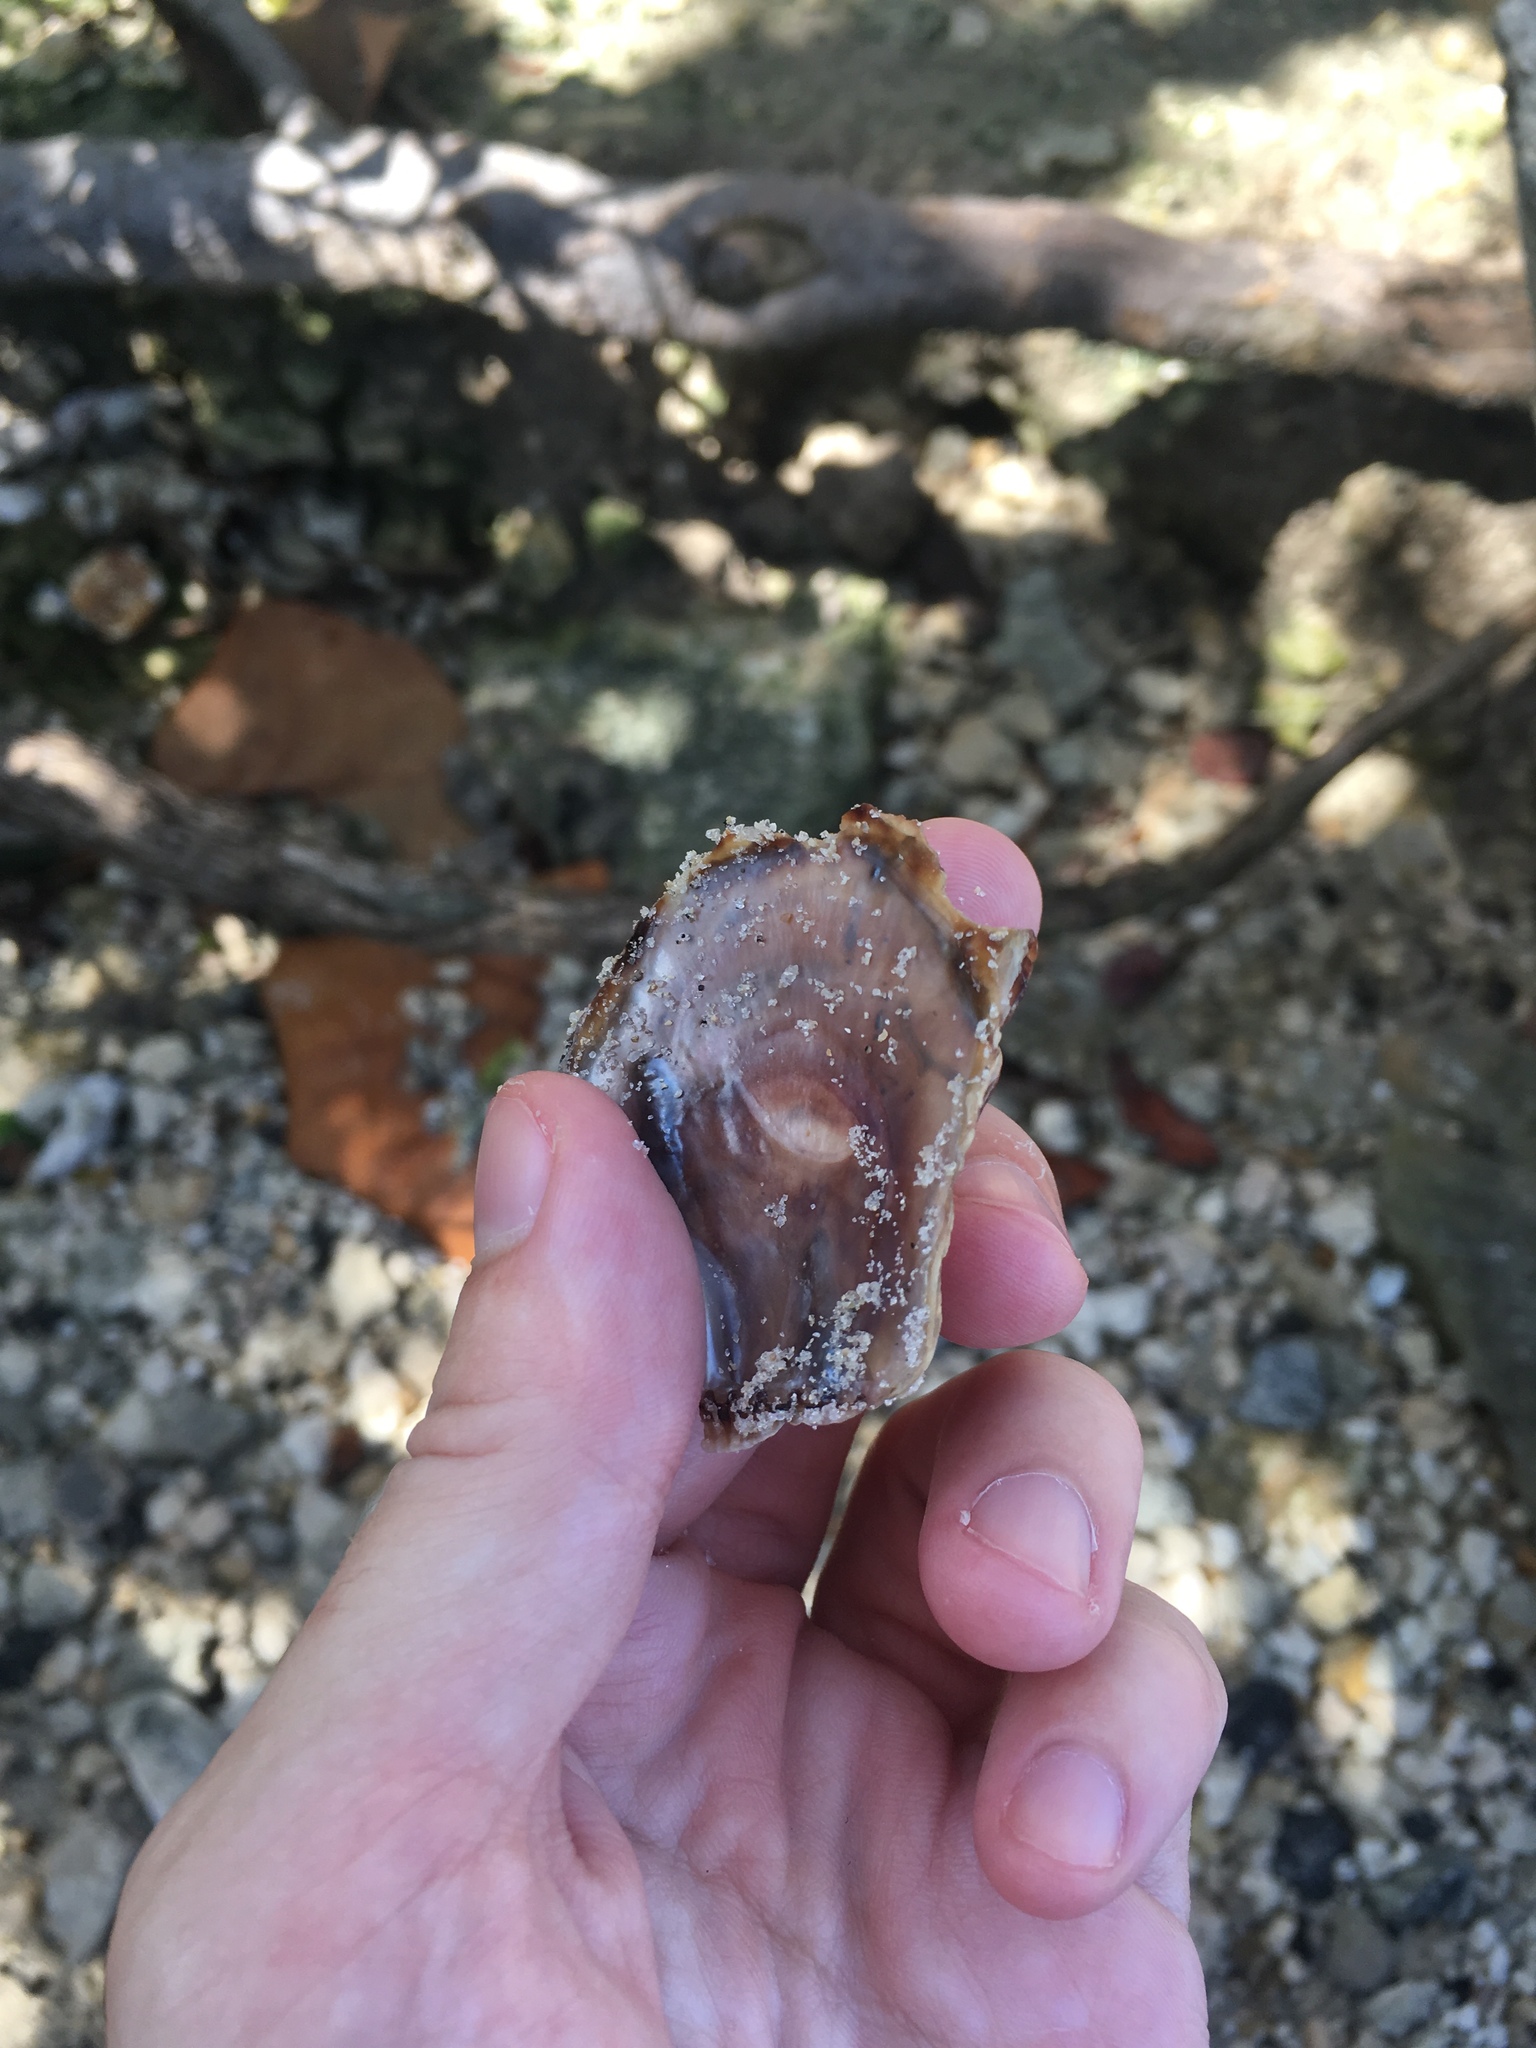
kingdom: Animalia
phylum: Mollusca
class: Bivalvia
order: Ostreida
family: Isognomonidae
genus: Isognomon
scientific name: Isognomon alatus
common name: Flat tree-oyster
